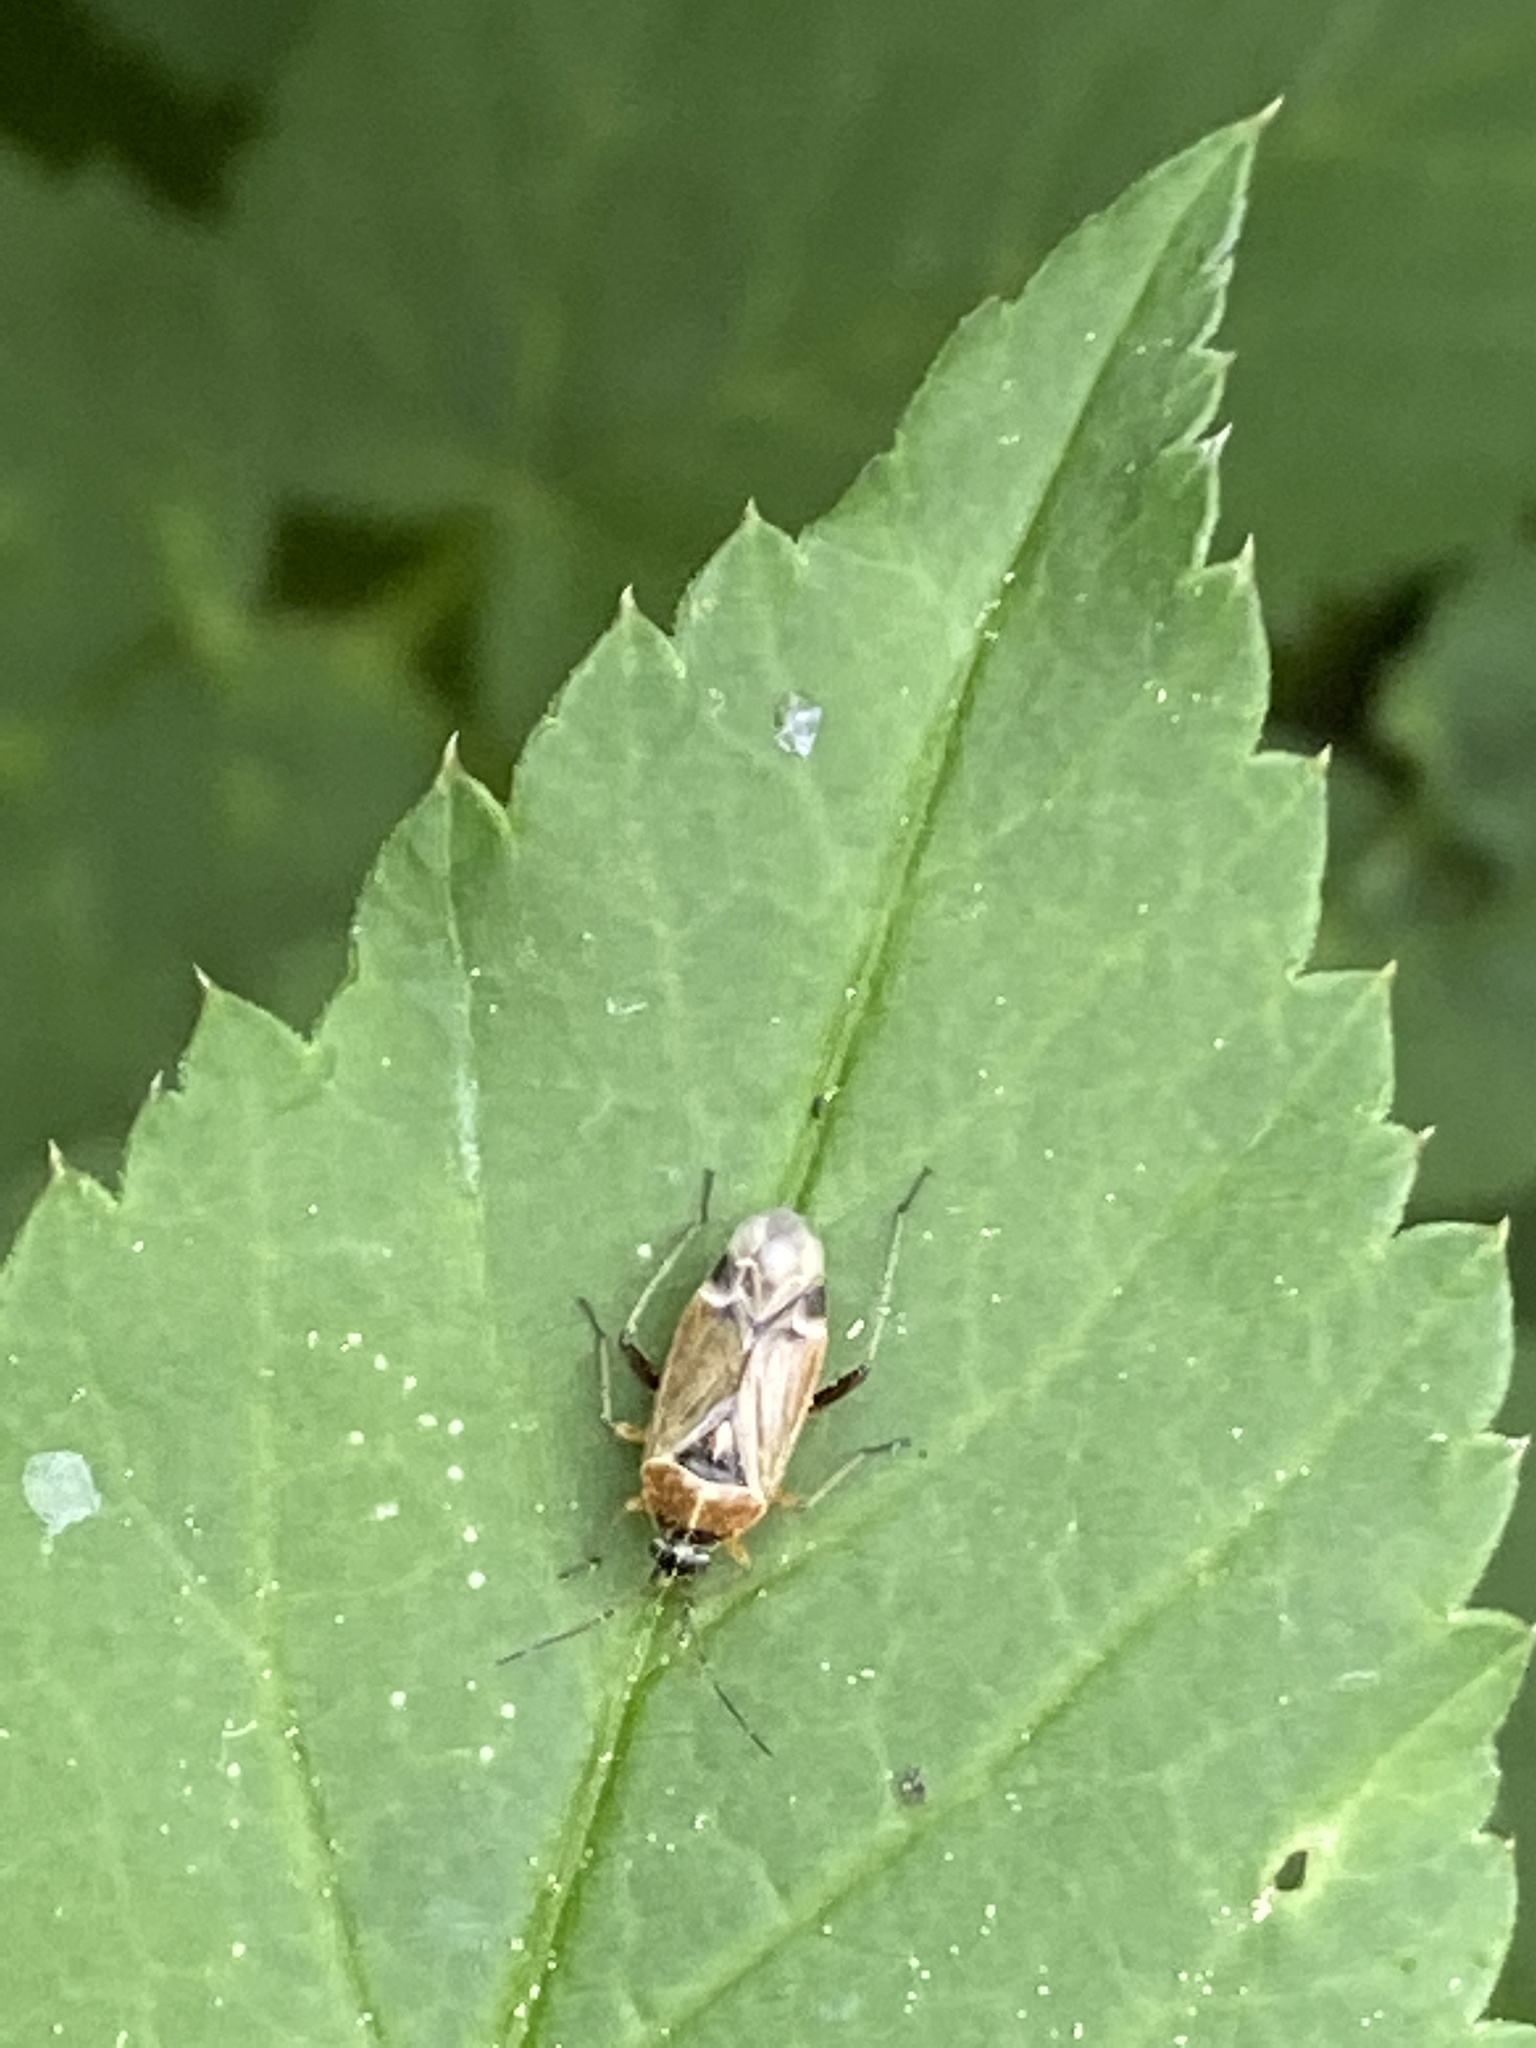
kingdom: Animalia
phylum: Arthropoda
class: Insecta
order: Hemiptera
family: Miridae
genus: Harpocera
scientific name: Harpocera thoracica
